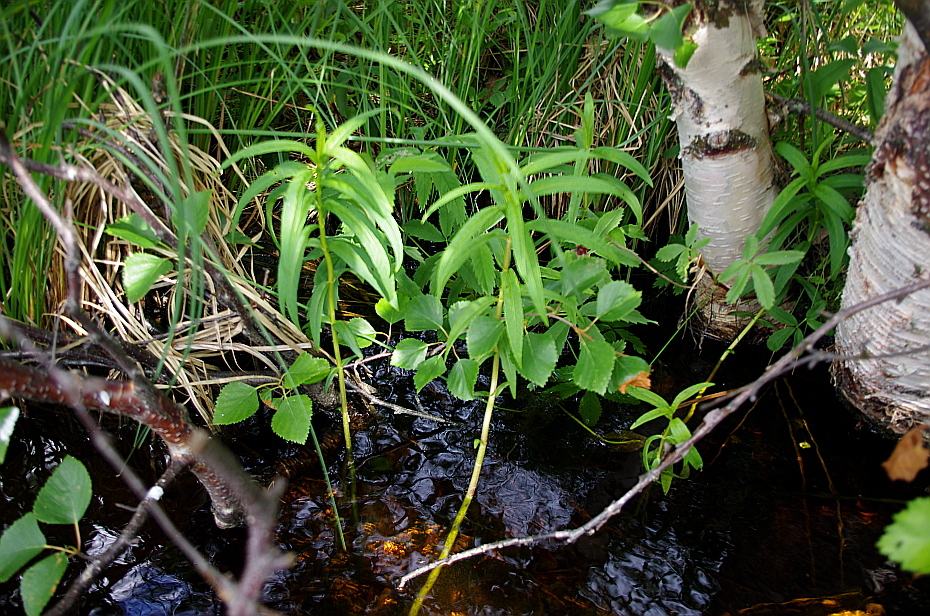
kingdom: Plantae
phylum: Tracheophyta
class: Magnoliopsida
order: Ericales
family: Primulaceae
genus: Lysimachia
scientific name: Lysimachia thyrsiflora
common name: Tufted loosestrife
